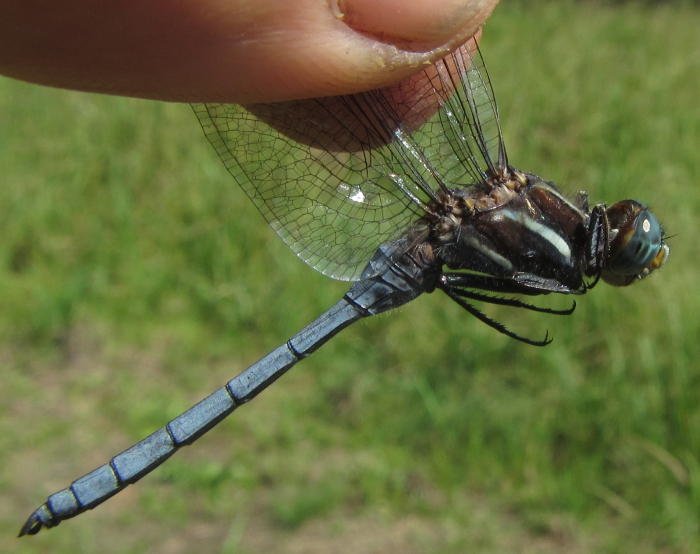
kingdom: Animalia
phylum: Arthropoda
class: Insecta
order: Odonata
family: Libellulidae
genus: Orthetrum
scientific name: Orthetrum caffrum
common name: Two-striped skimmer
